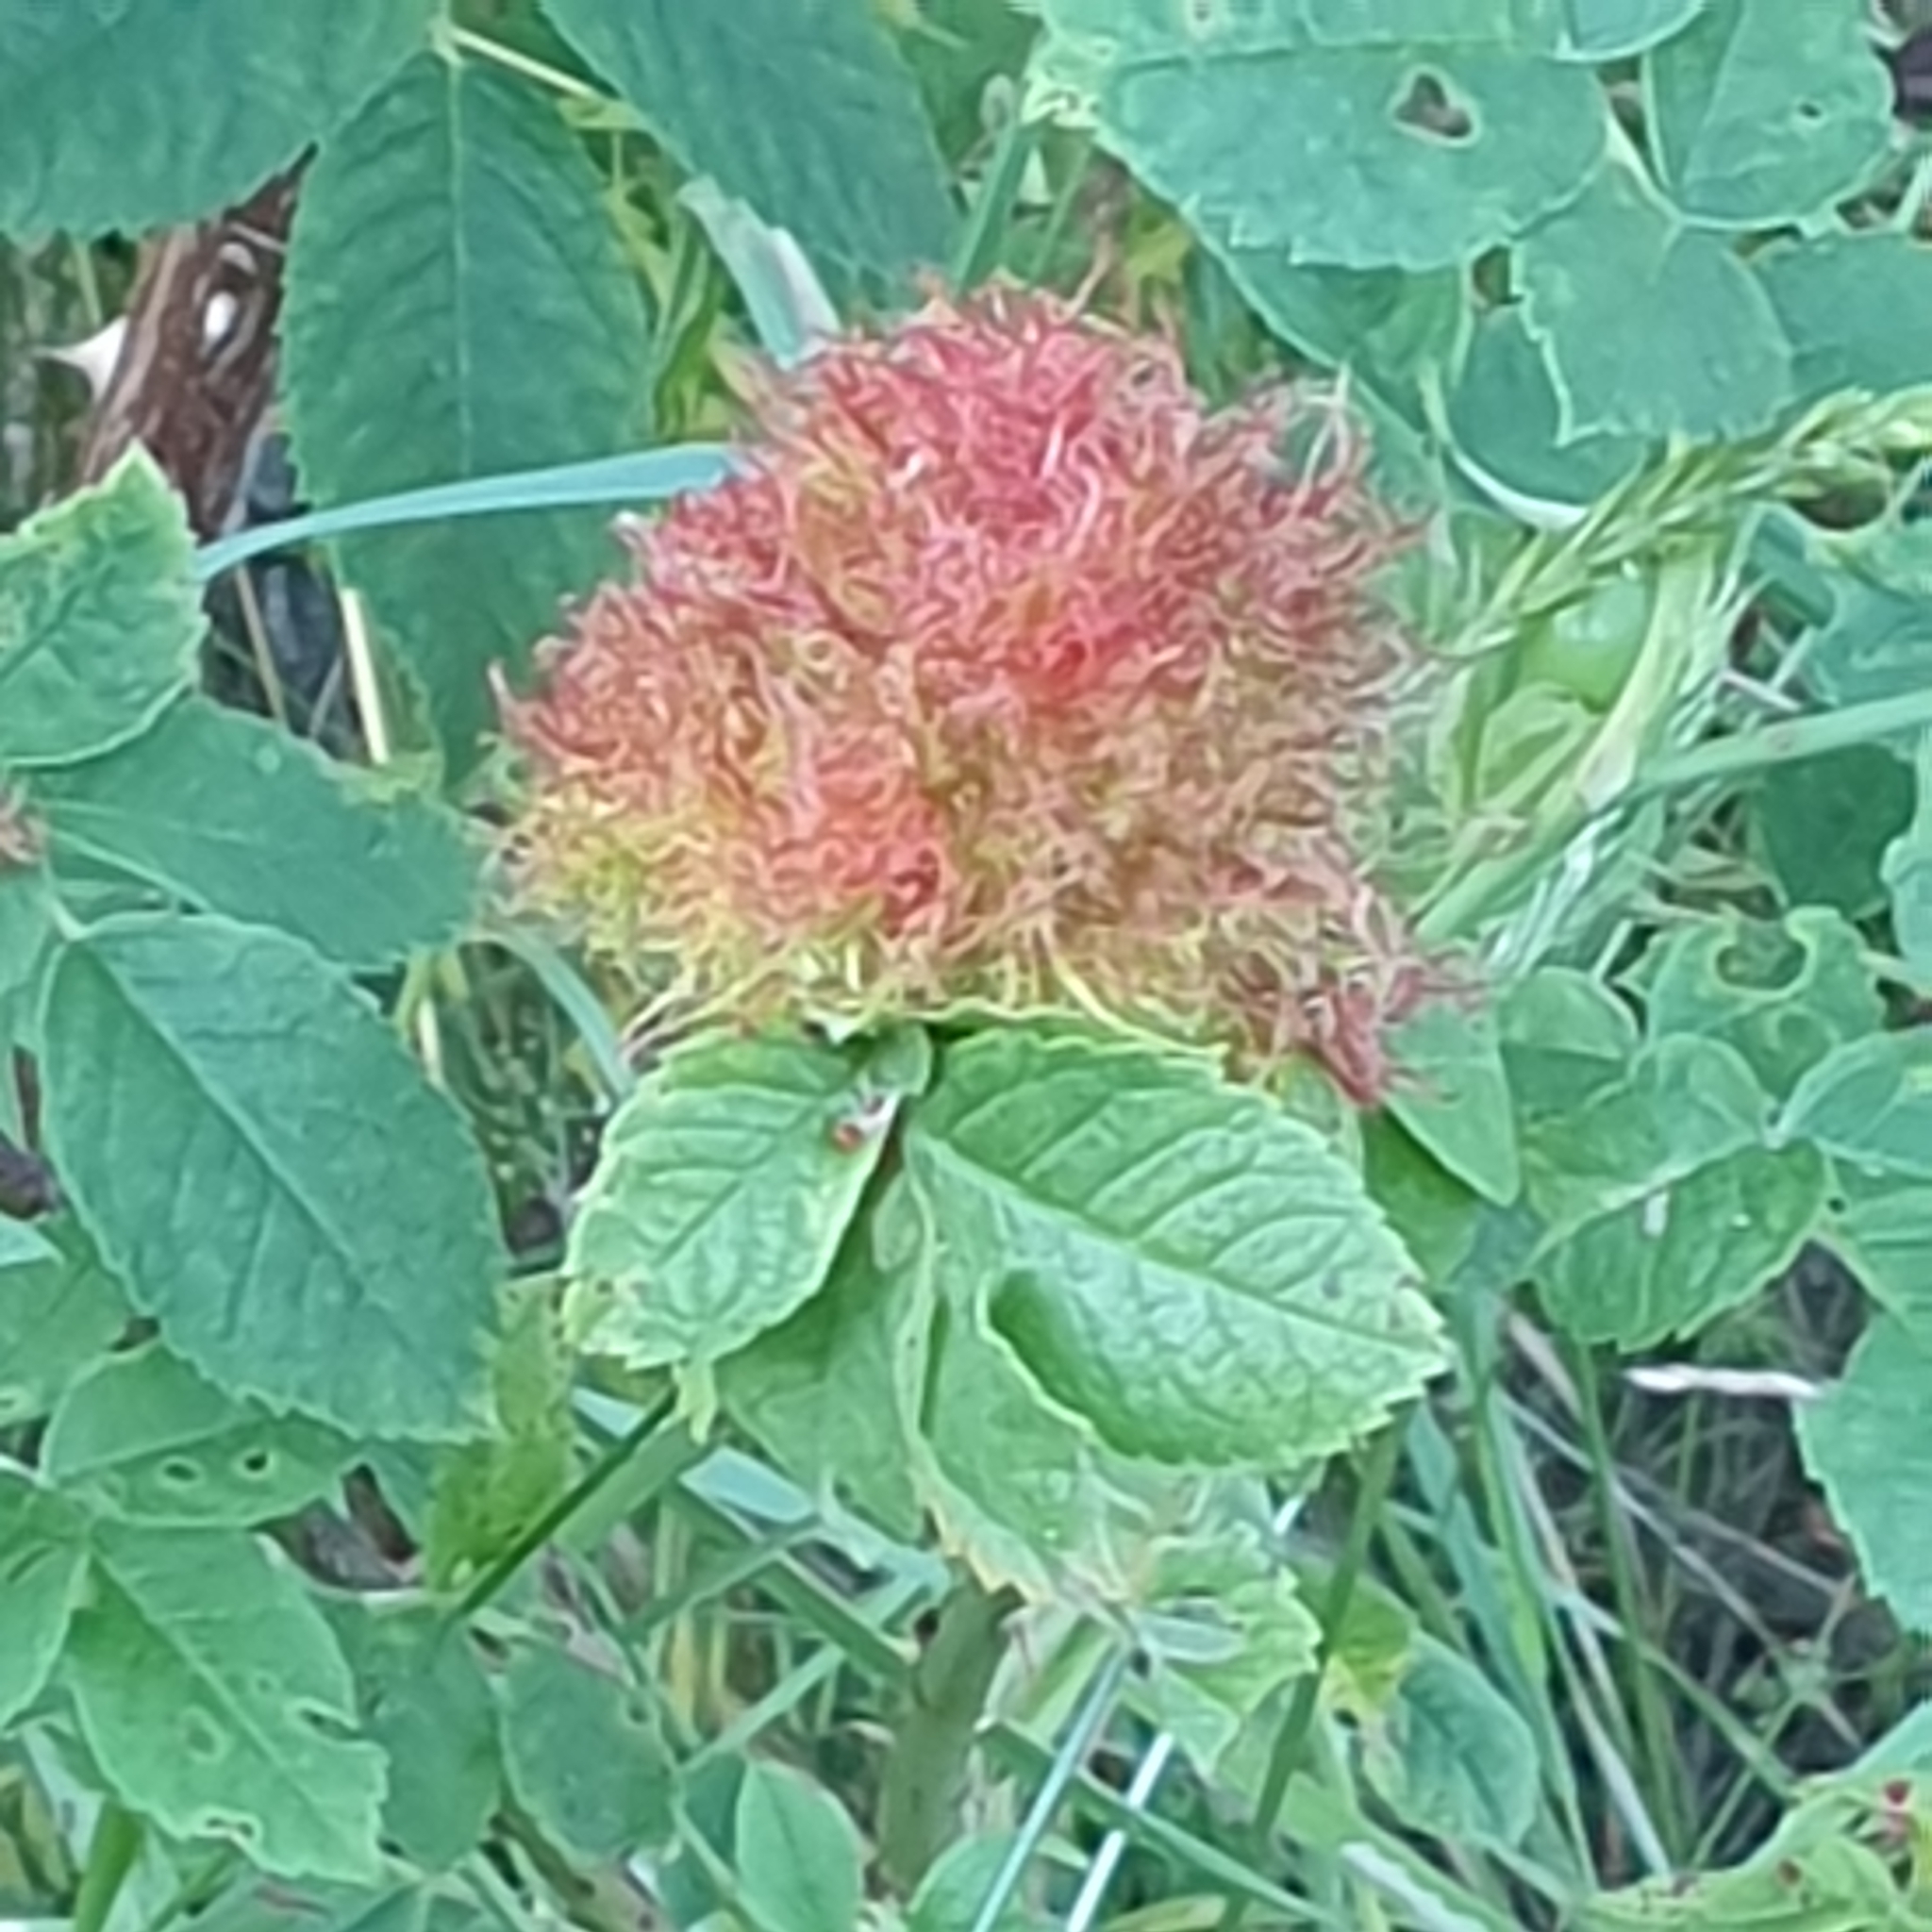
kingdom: Animalia
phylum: Arthropoda
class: Insecta
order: Hymenoptera
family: Cynipidae
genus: Diplolepis
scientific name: Diplolepis rosae
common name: Bedeguar gall
